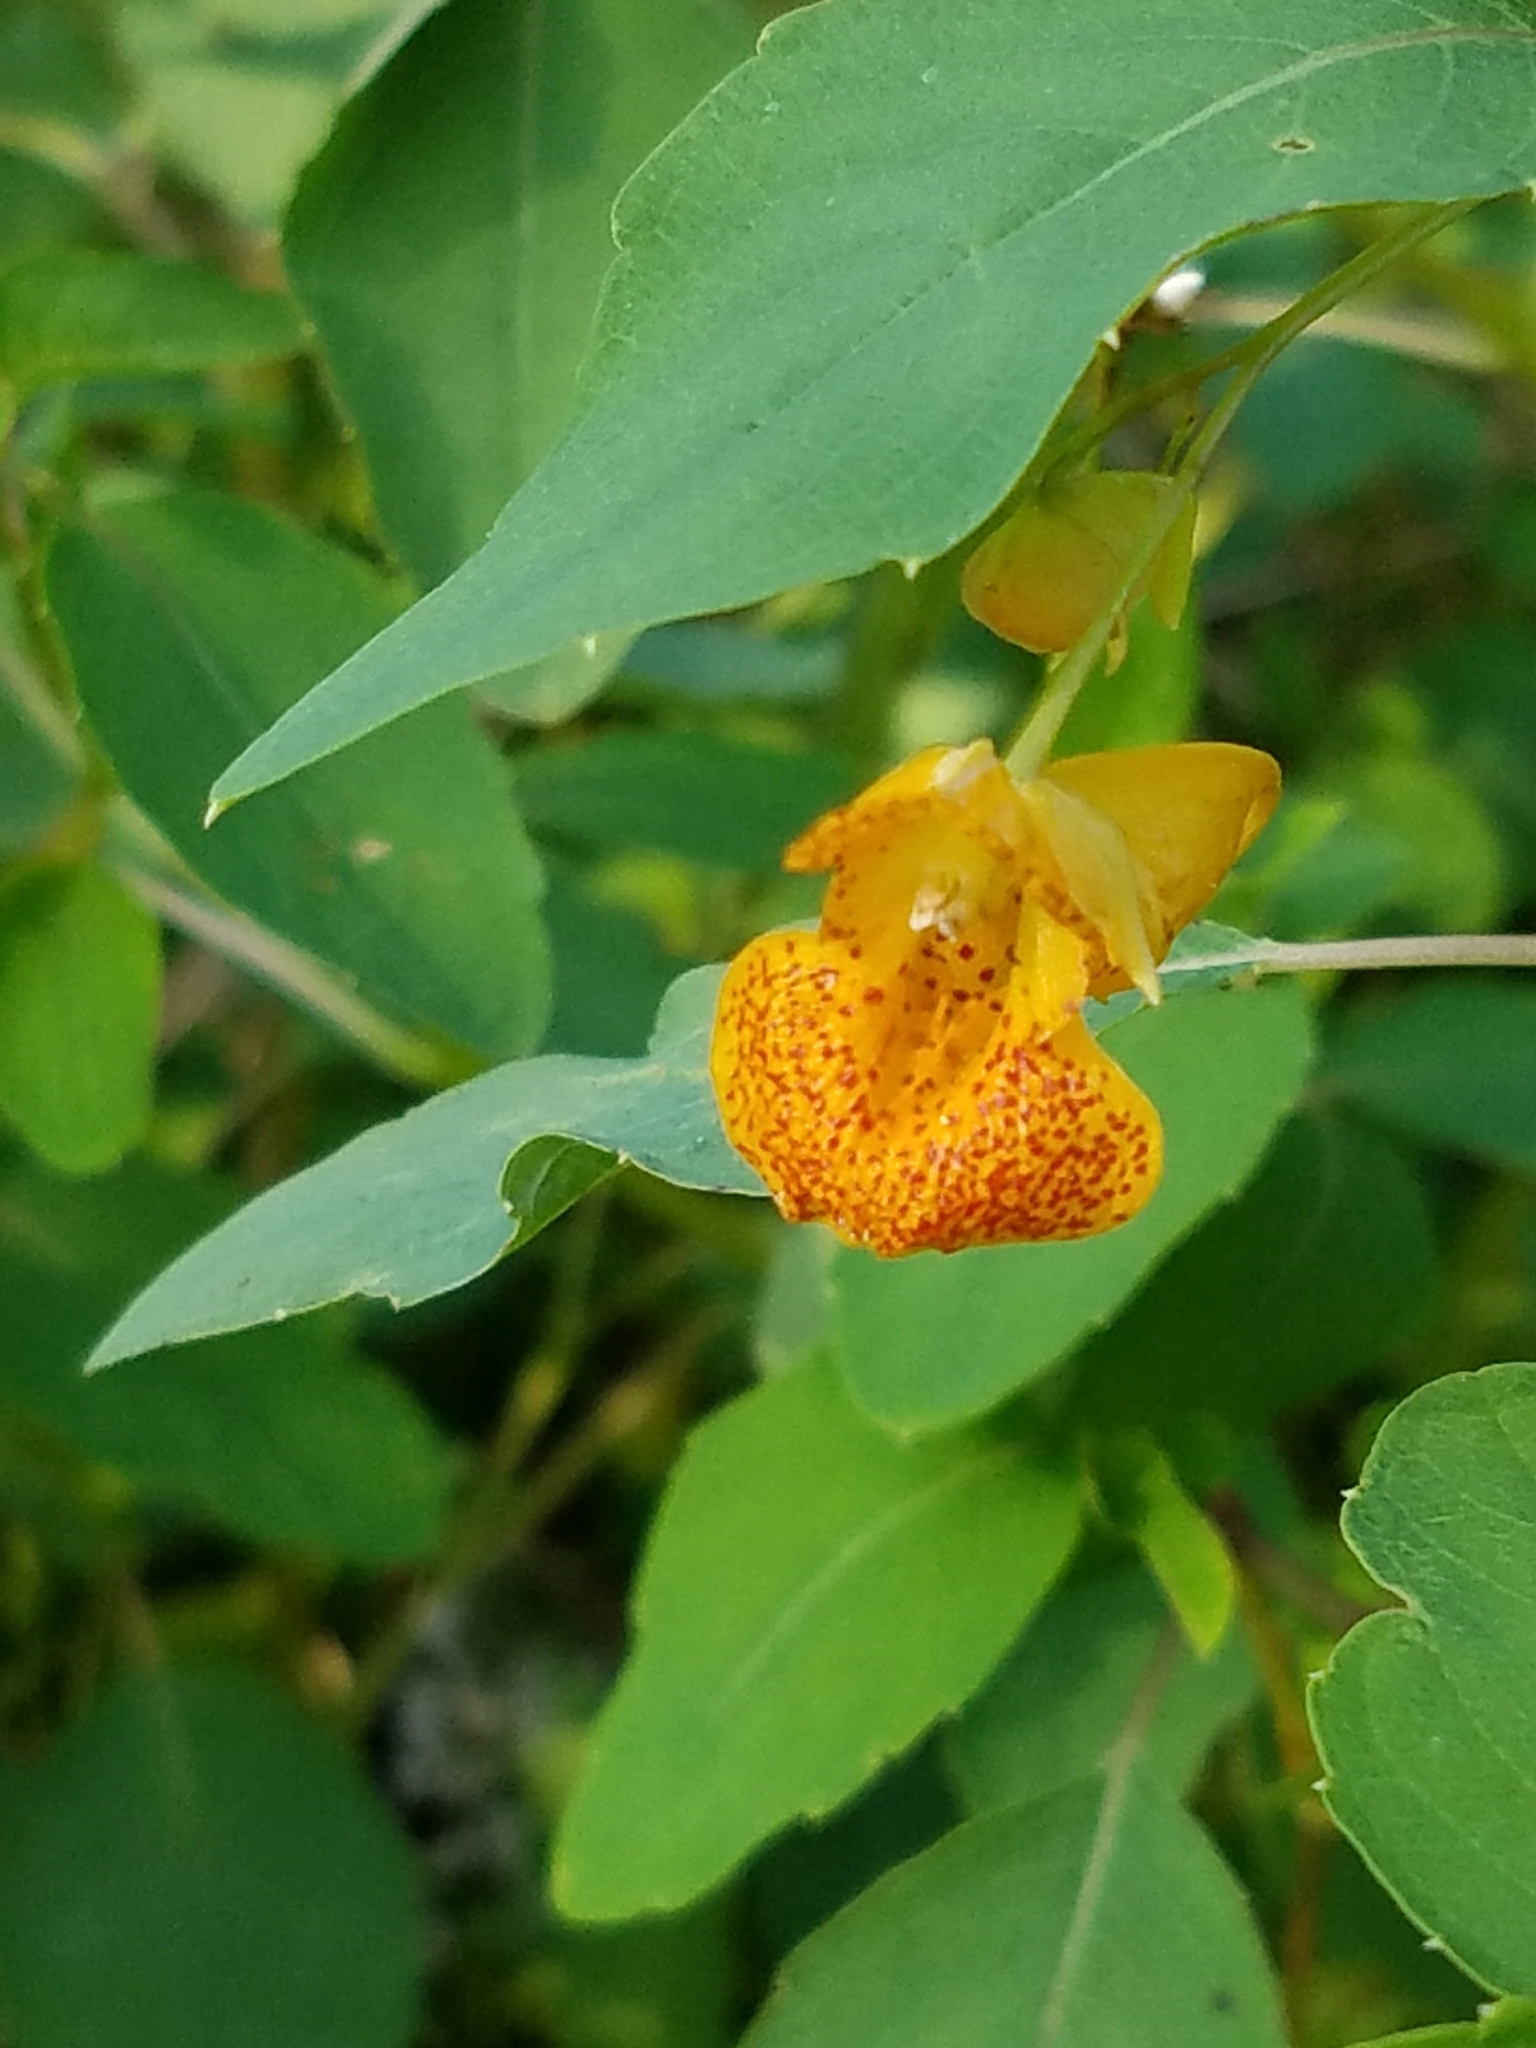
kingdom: Plantae
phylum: Tracheophyta
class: Magnoliopsida
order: Ericales
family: Balsaminaceae
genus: Impatiens
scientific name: Impatiens capensis
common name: Orange balsam
